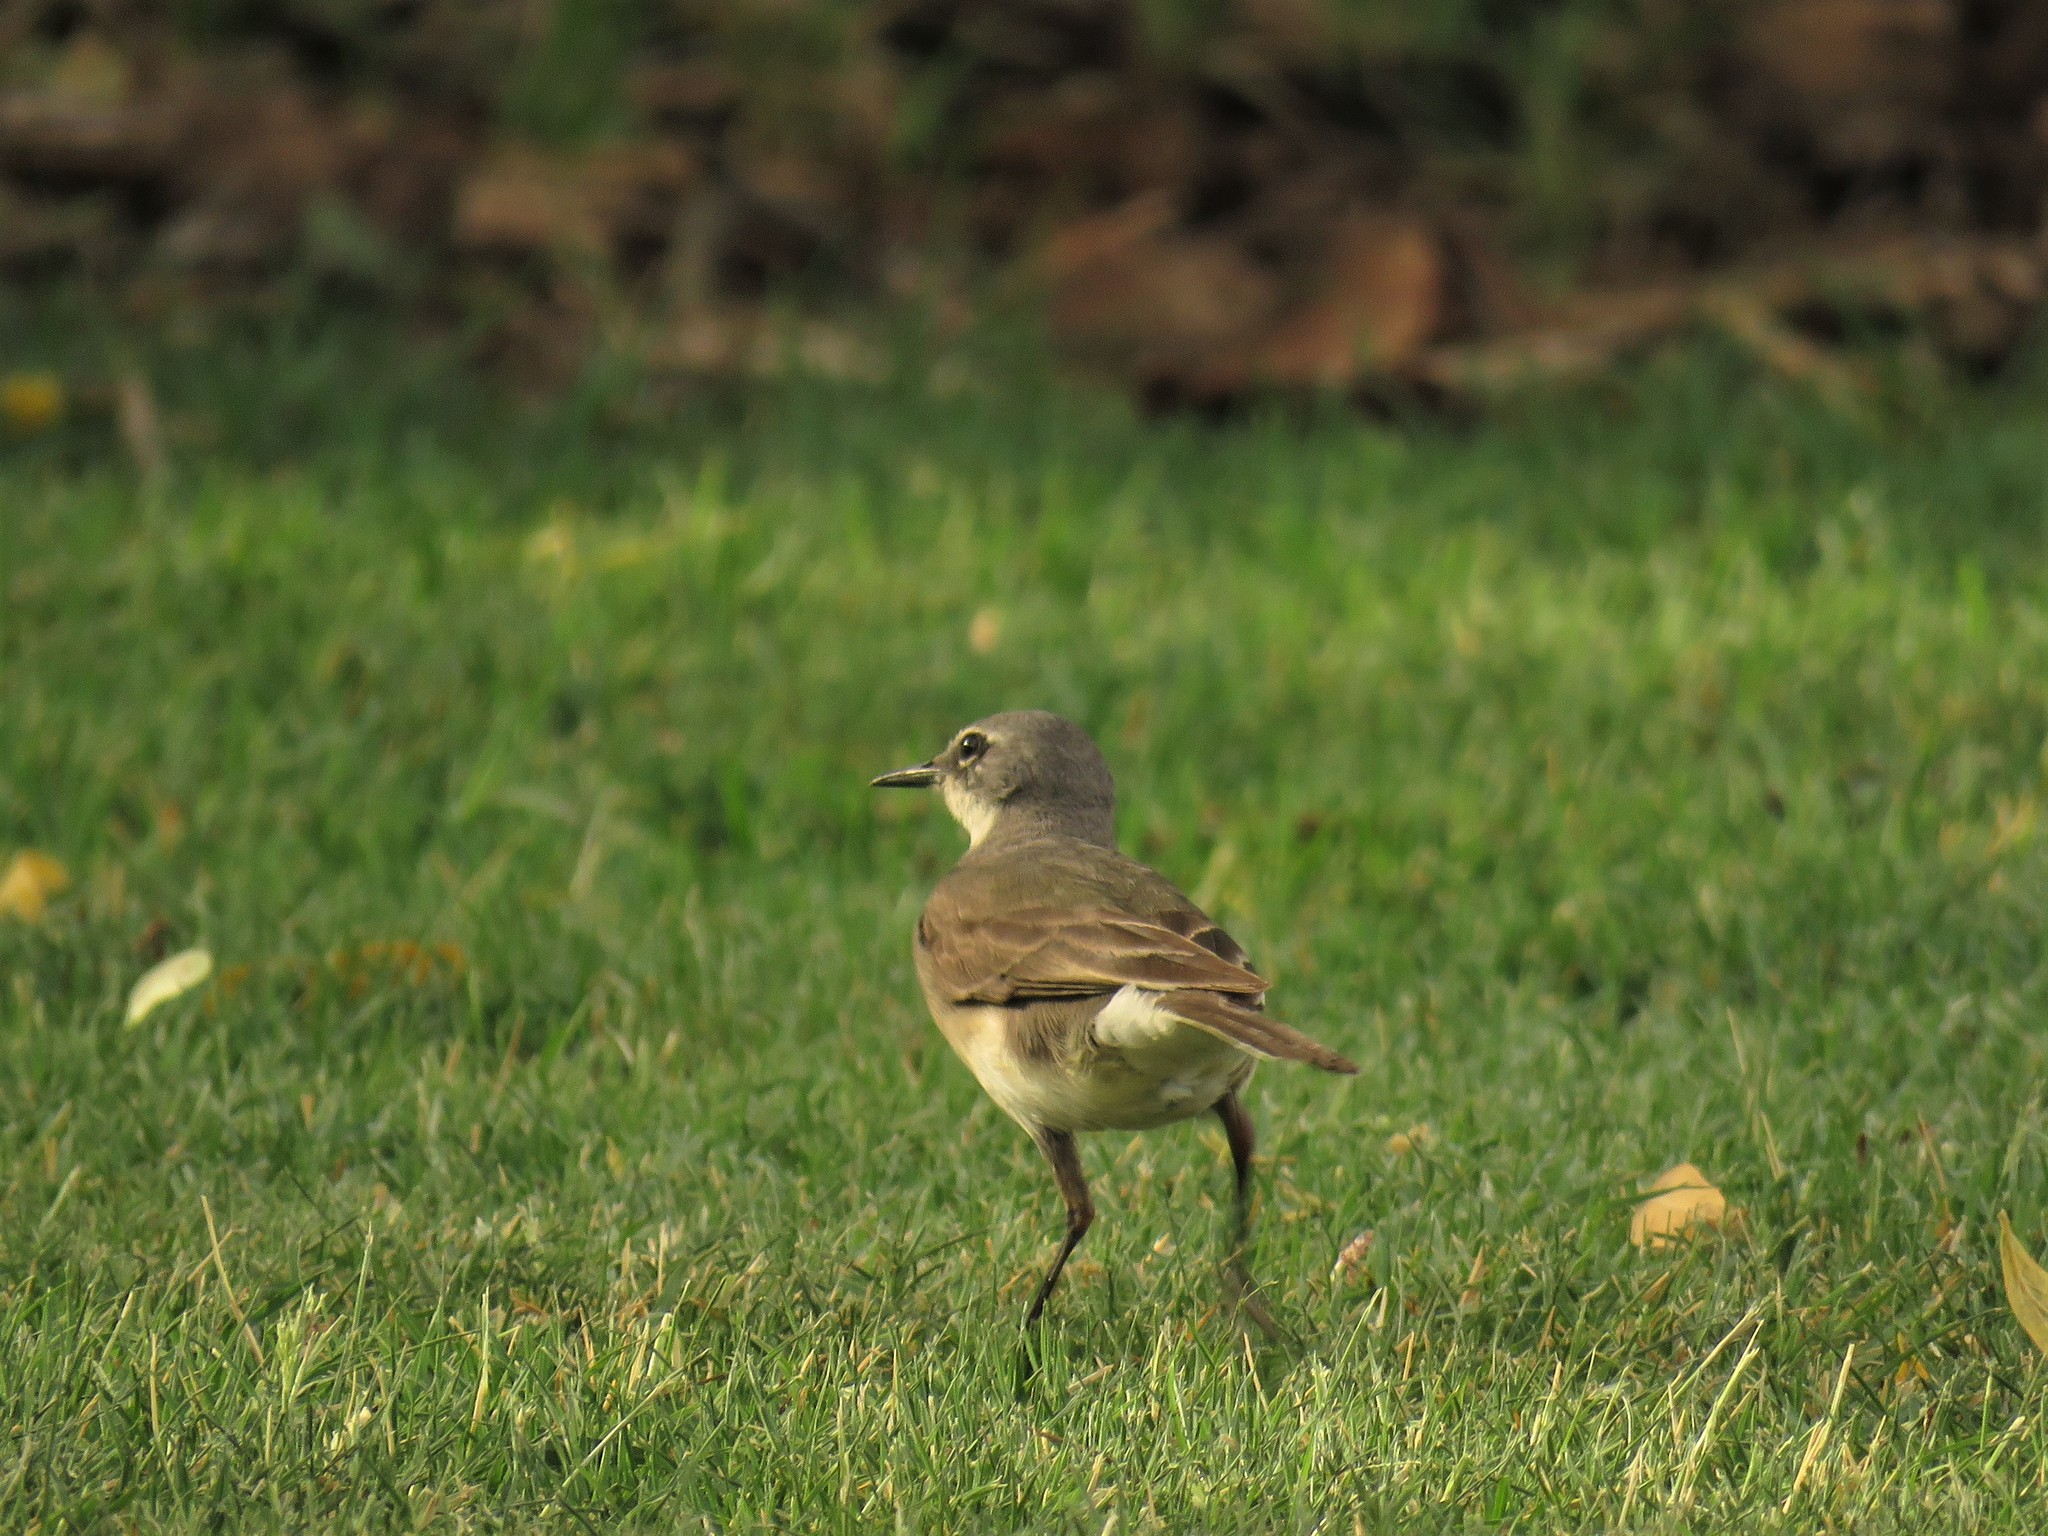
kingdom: Animalia
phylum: Chordata
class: Aves
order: Passeriformes
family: Motacillidae
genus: Motacilla
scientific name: Motacilla capensis
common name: Cape wagtail
